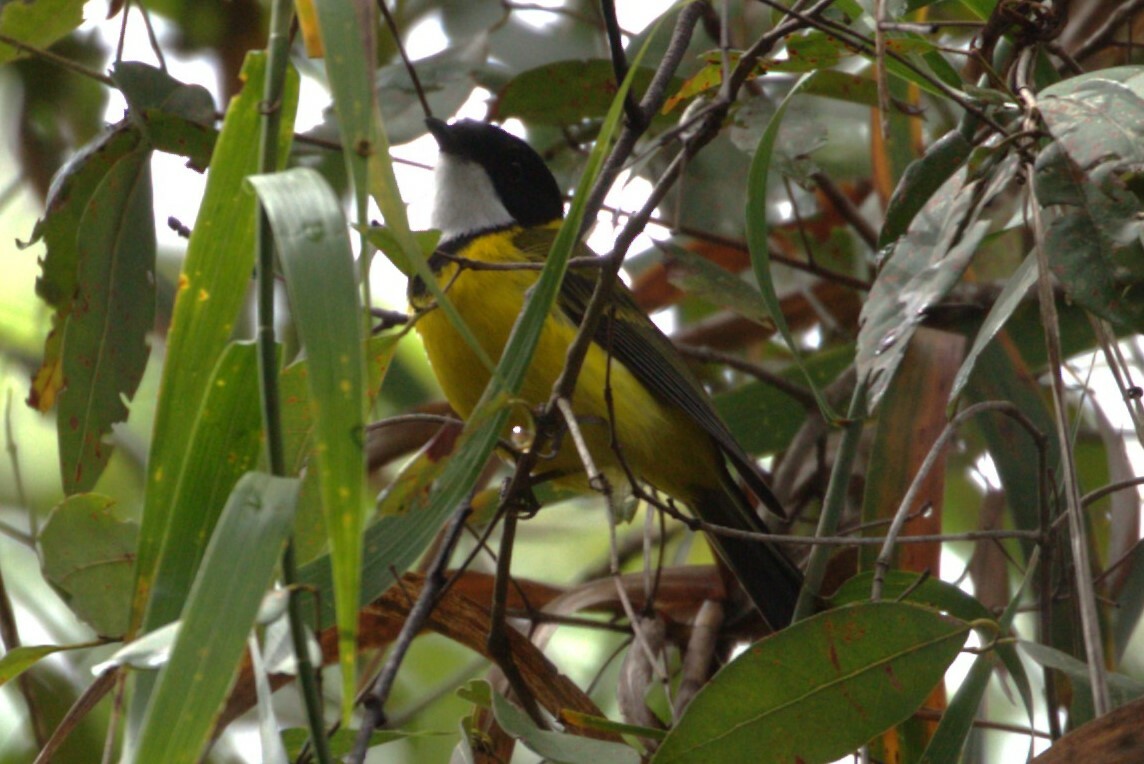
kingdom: Animalia
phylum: Chordata
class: Aves
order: Passeriformes
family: Pachycephalidae
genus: Pachycephala
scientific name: Pachycephala pectoralis
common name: Australian golden whistler
